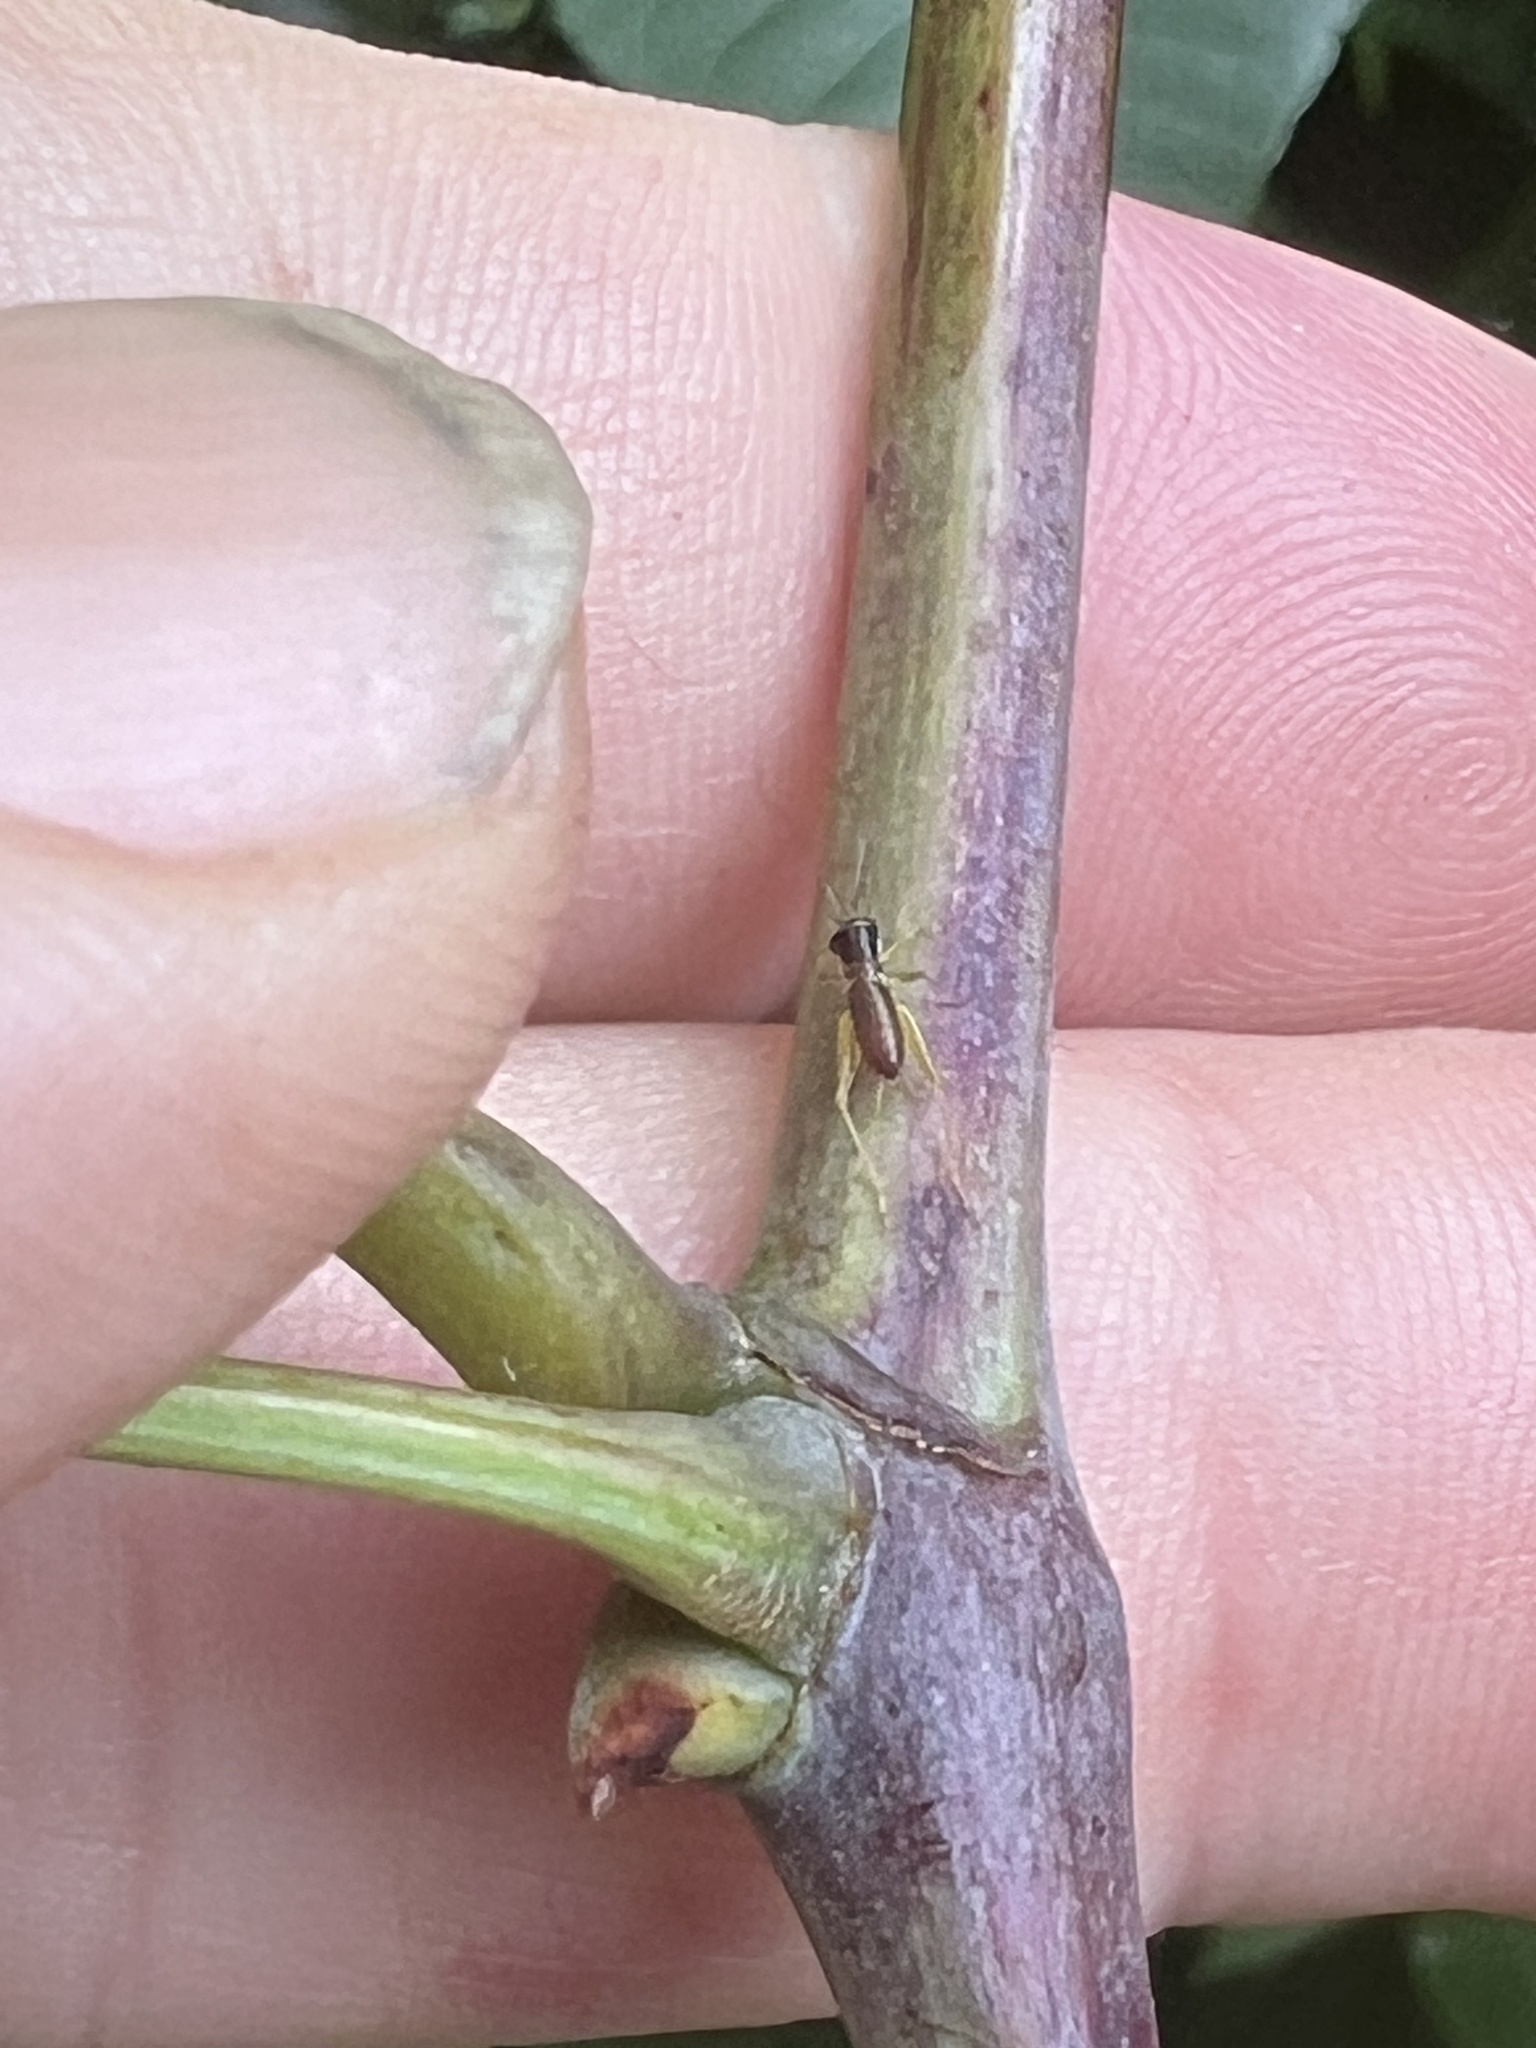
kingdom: Animalia
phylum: Arthropoda
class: Insecta
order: Orthoptera
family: Trigonidiidae
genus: Phyllopalpus
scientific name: Phyllopalpus pulchellus
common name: Handsome trig
